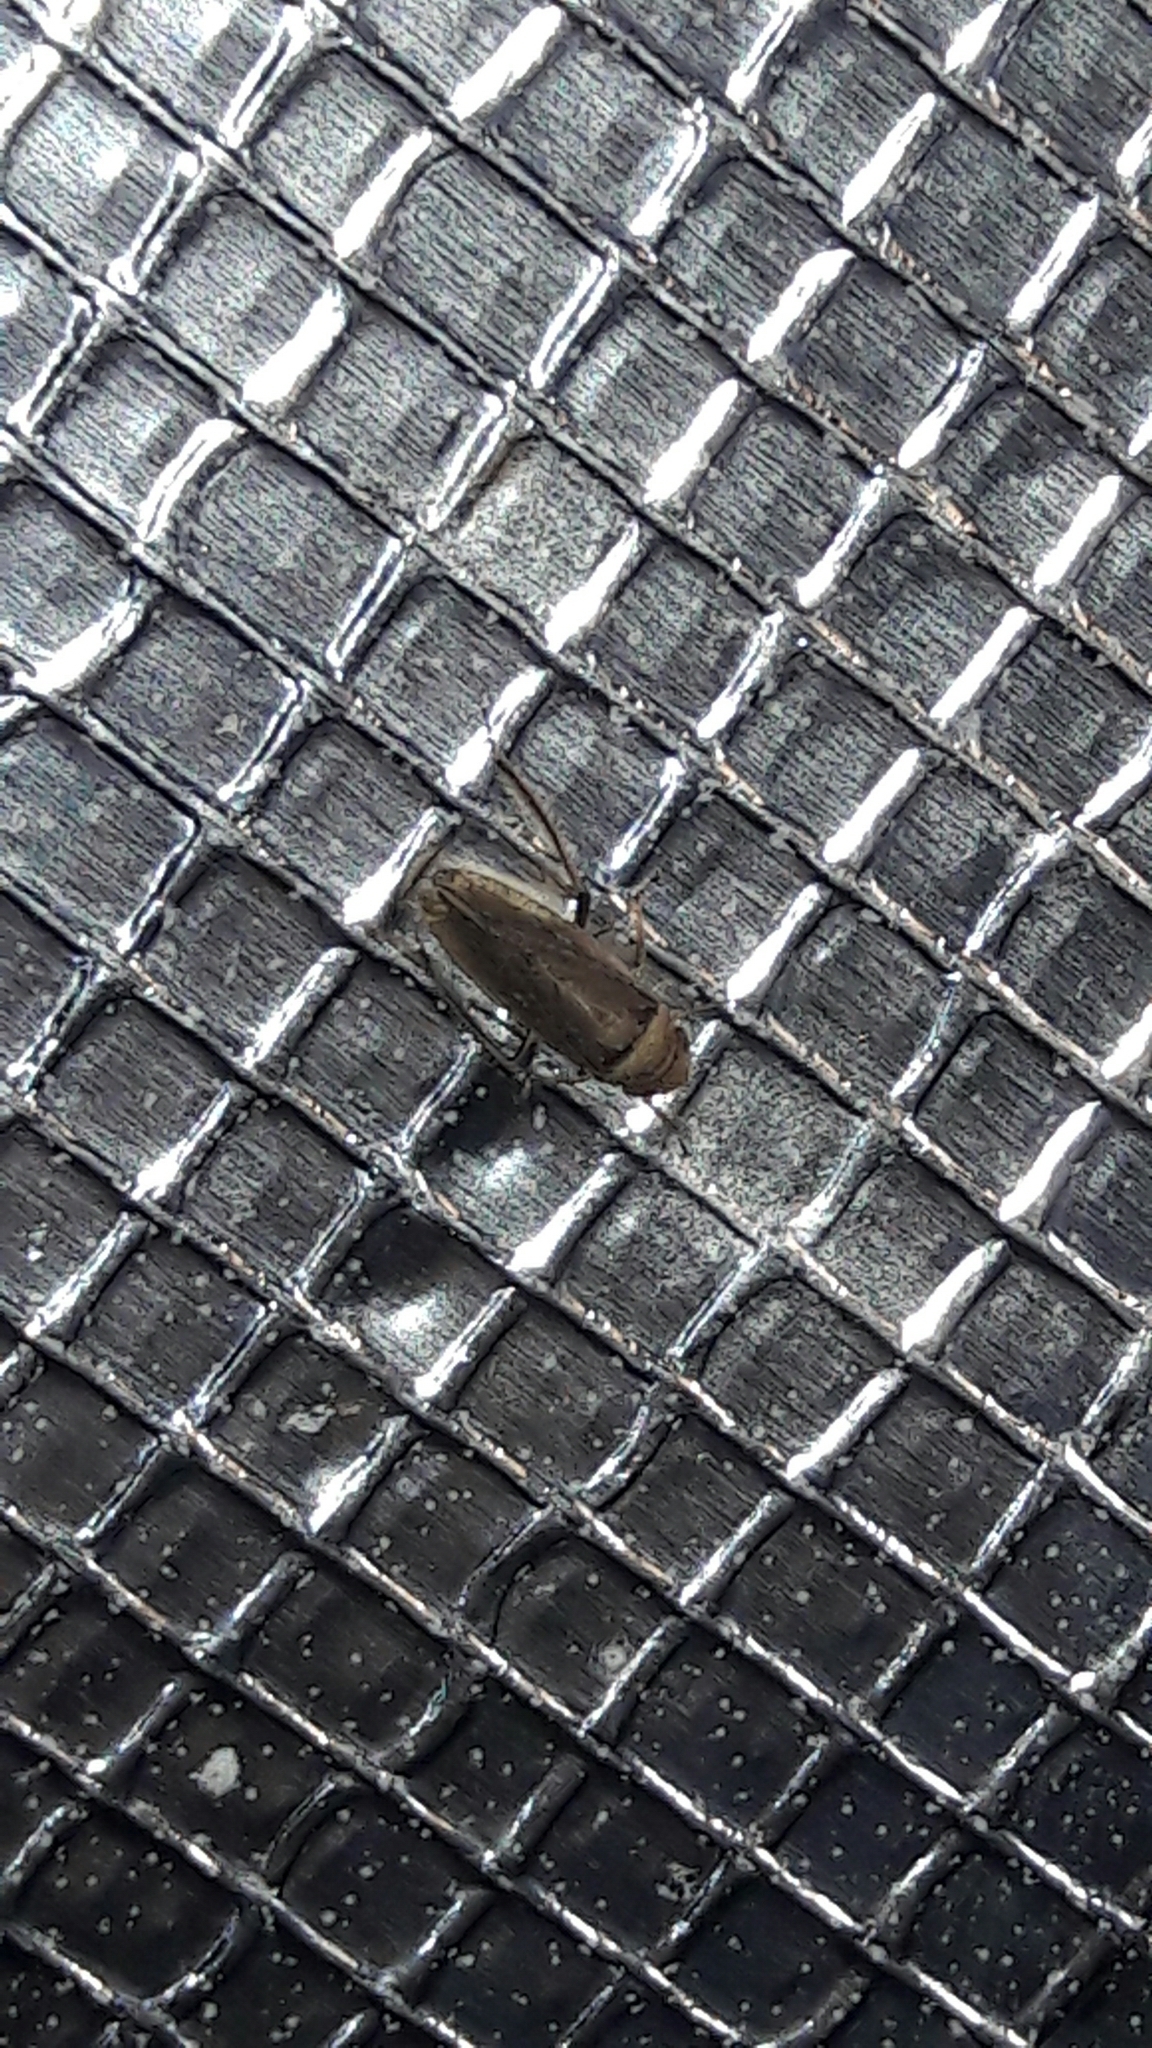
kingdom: Animalia
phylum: Arthropoda
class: Insecta
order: Hemiptera
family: Cicadellidae
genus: Sordana
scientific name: Sordana sordida
